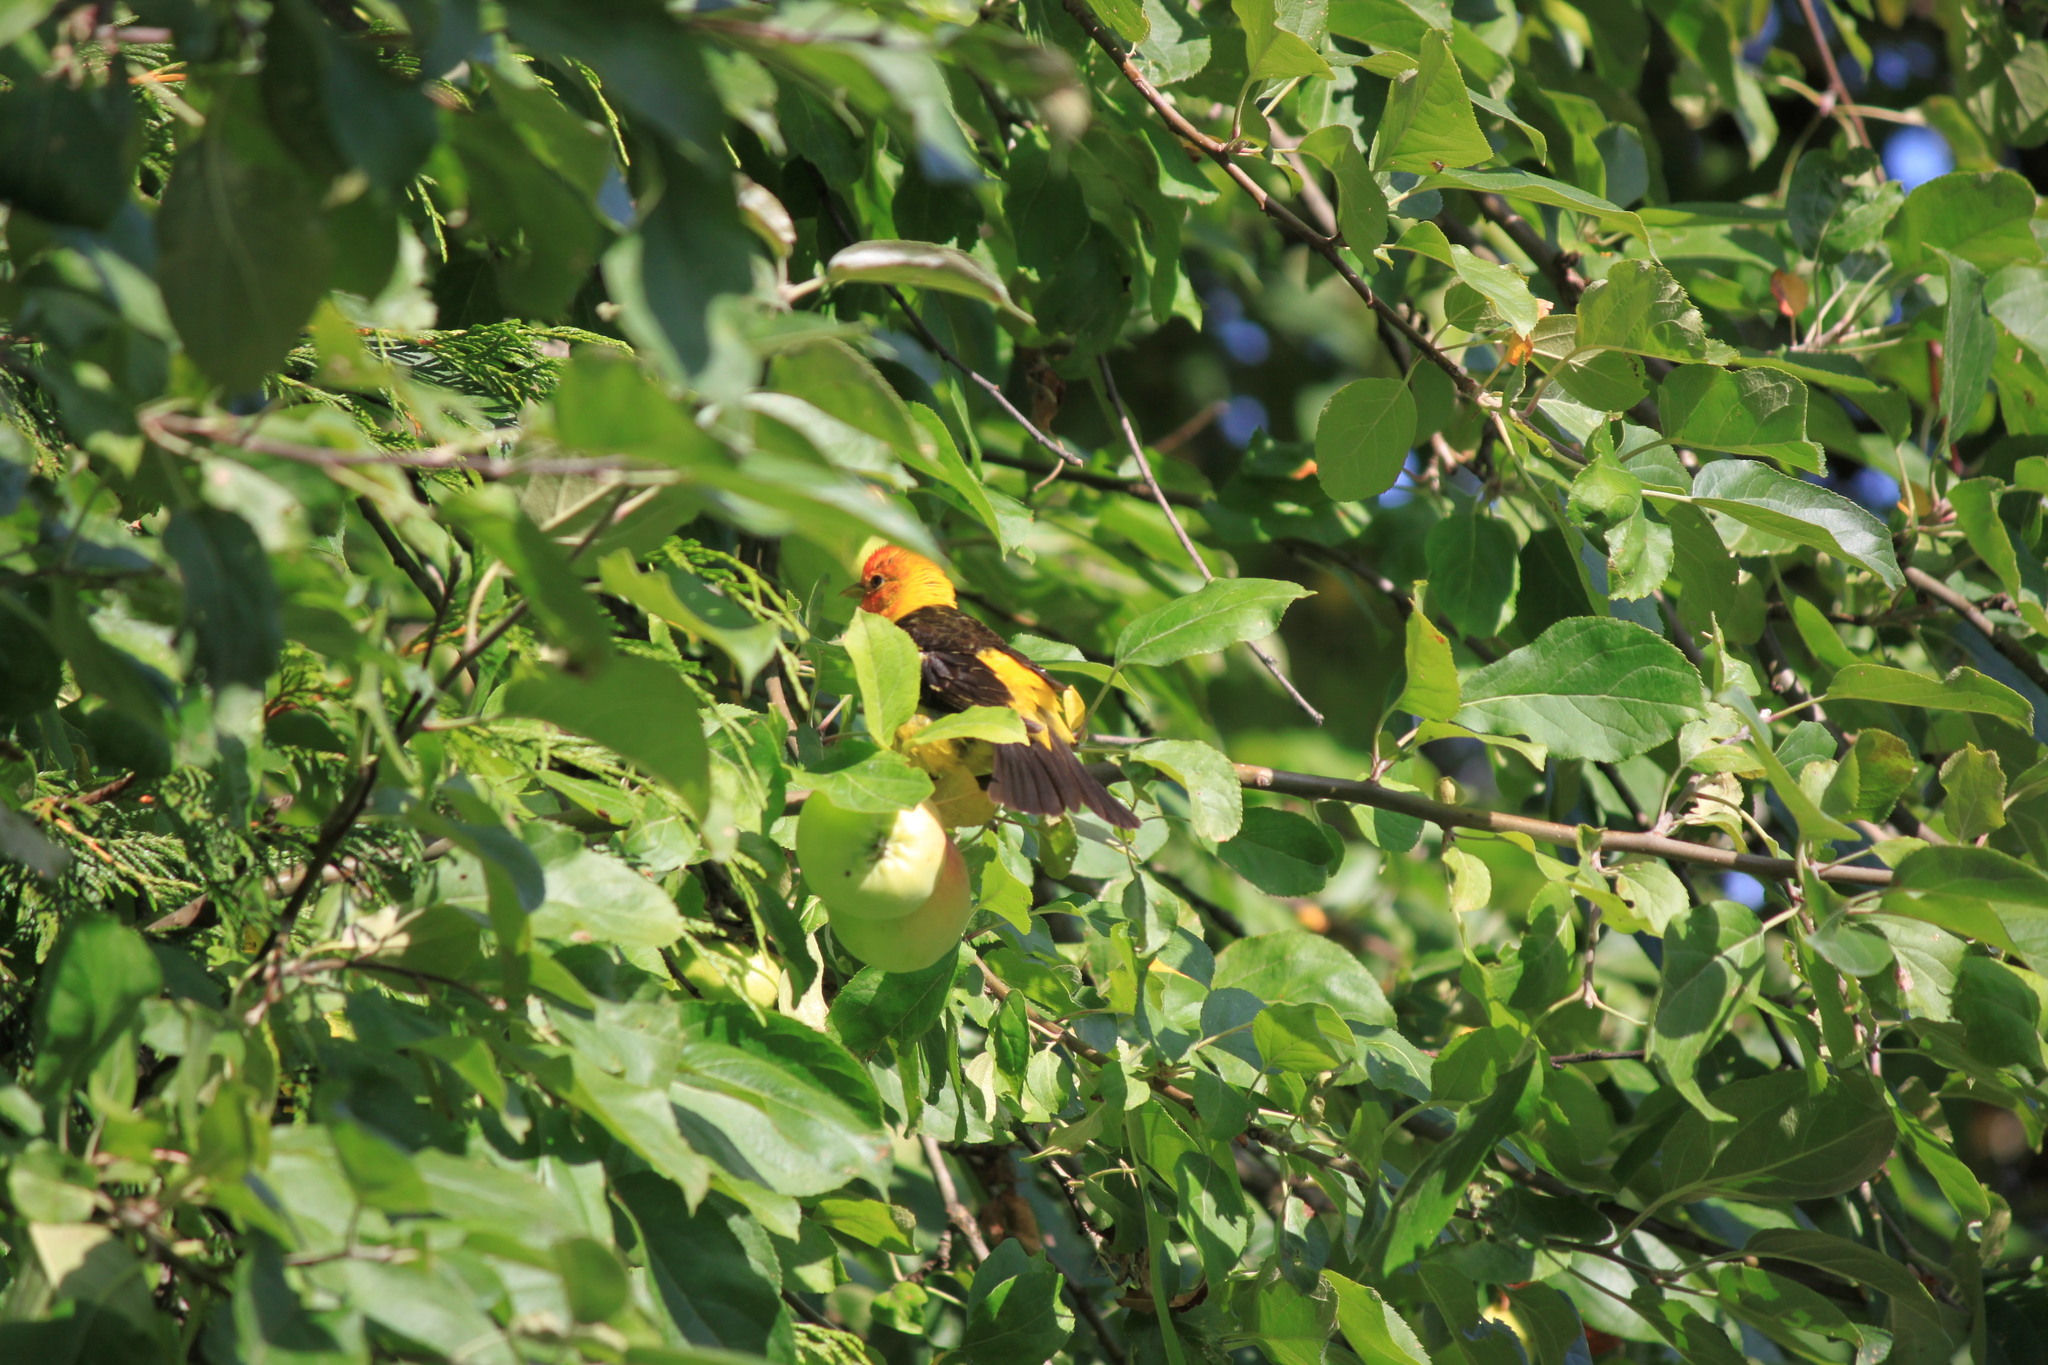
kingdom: Animalia
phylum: Chordata
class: Aves
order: Passeriformes
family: Cardinalidae
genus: Piranga
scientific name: Piranga ludoviciana
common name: Western tanager
